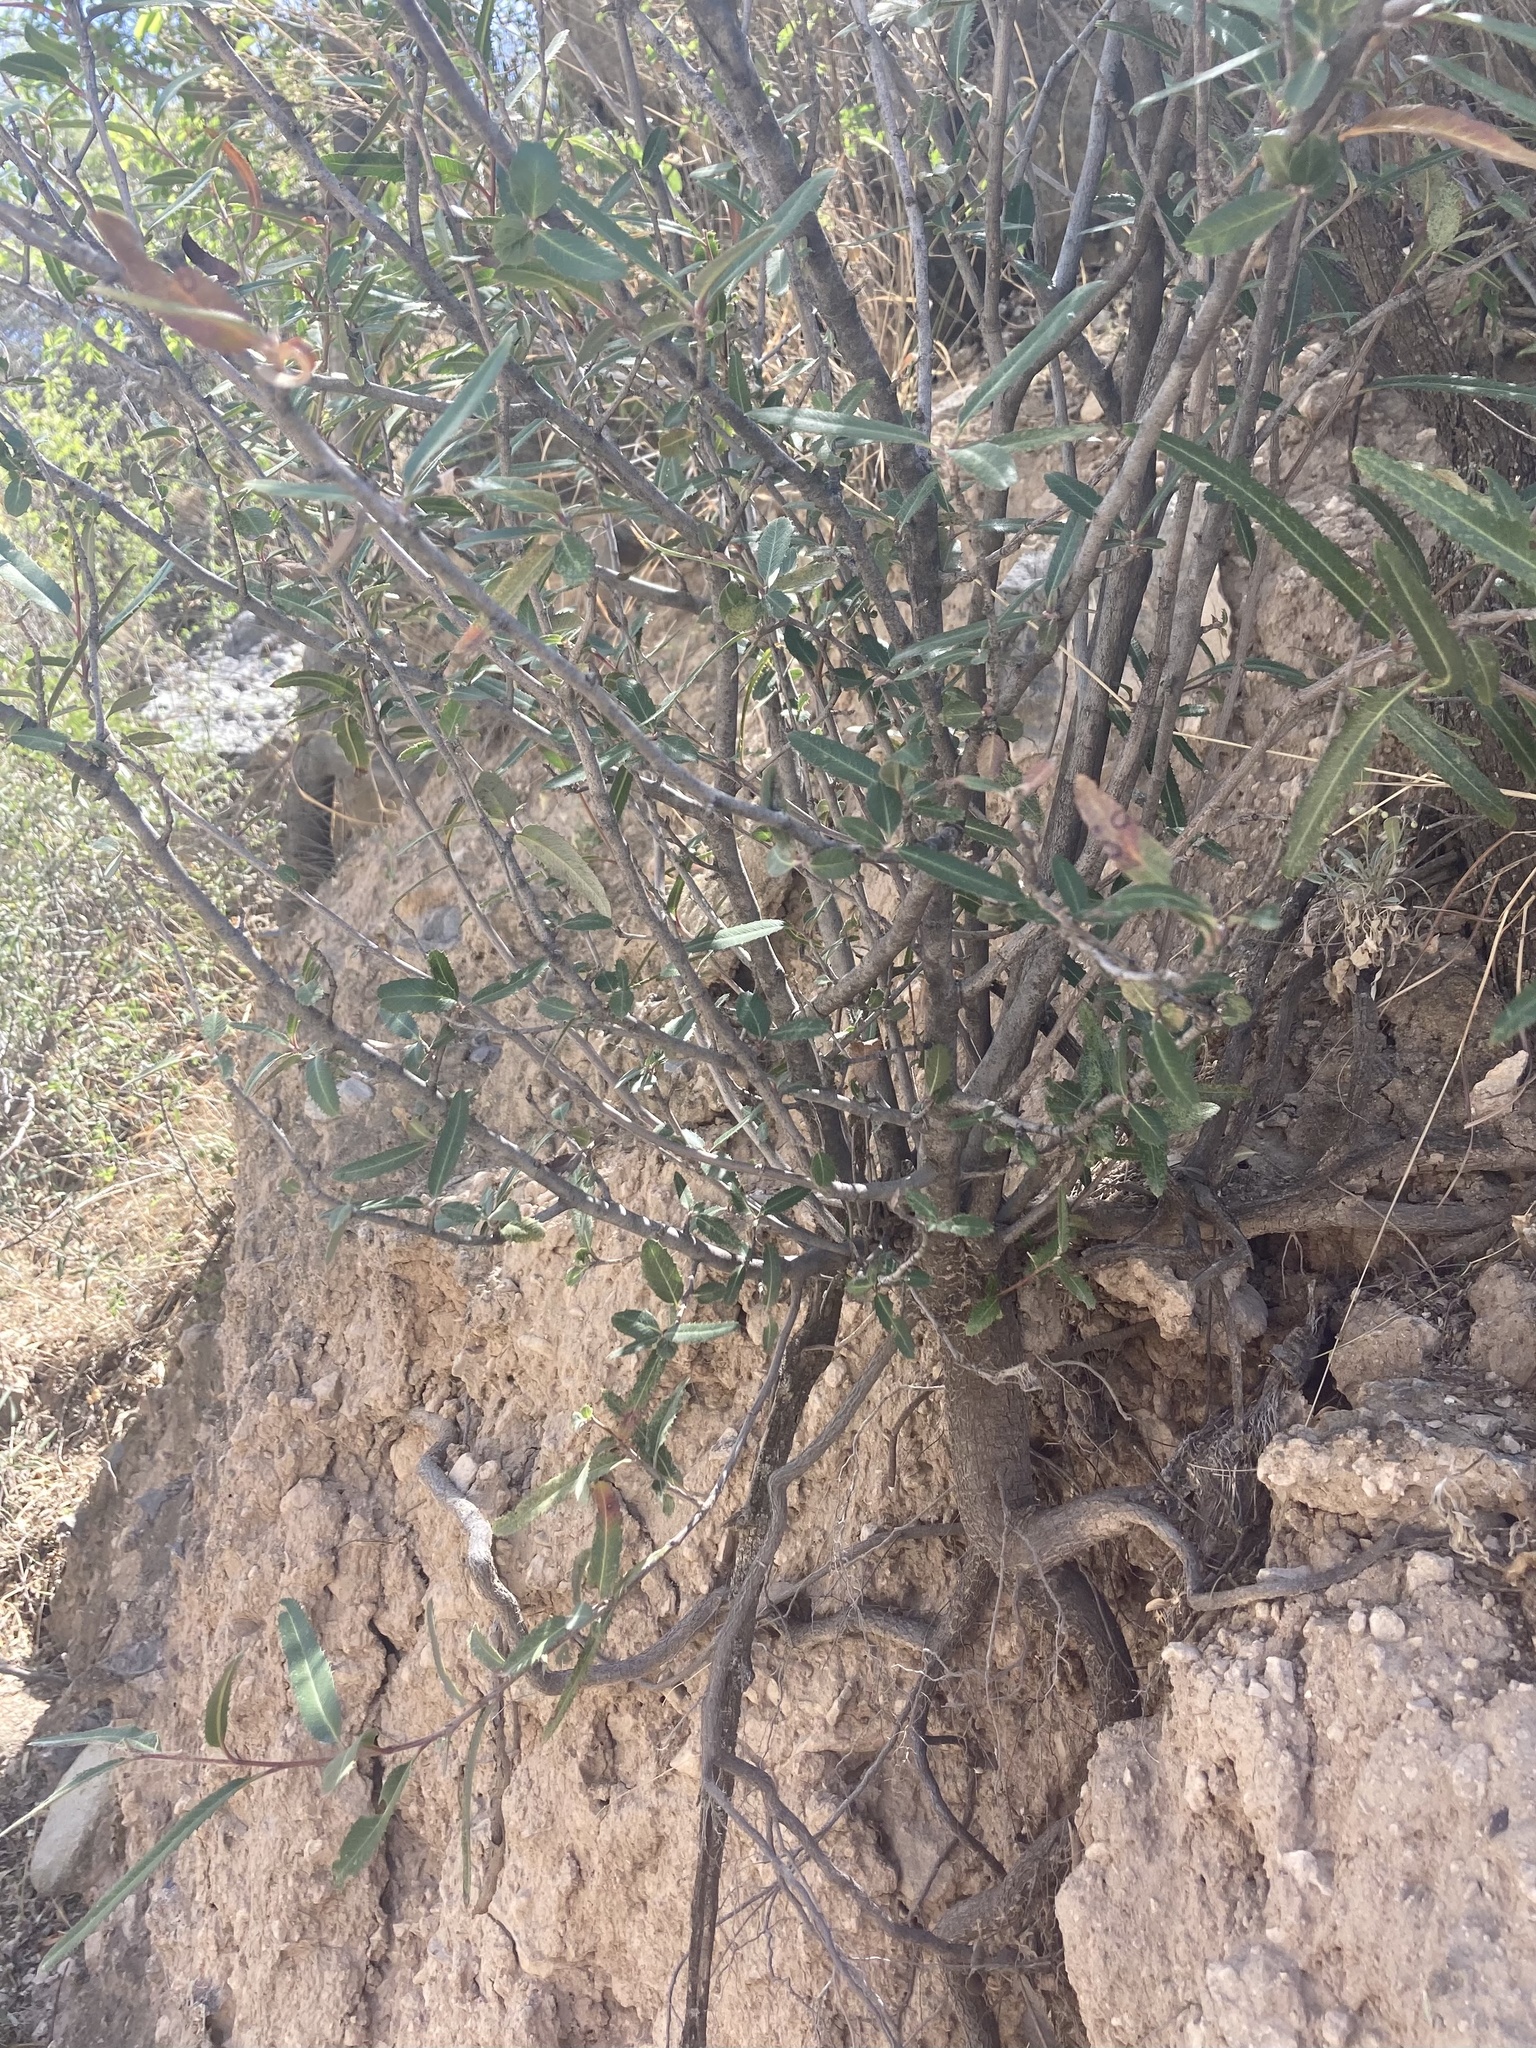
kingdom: Plantae
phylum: Tracheophyta
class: Magnoliopsida
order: Rosales
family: Rosaceae
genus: Vauquelinia
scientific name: Vauquelinia californica
